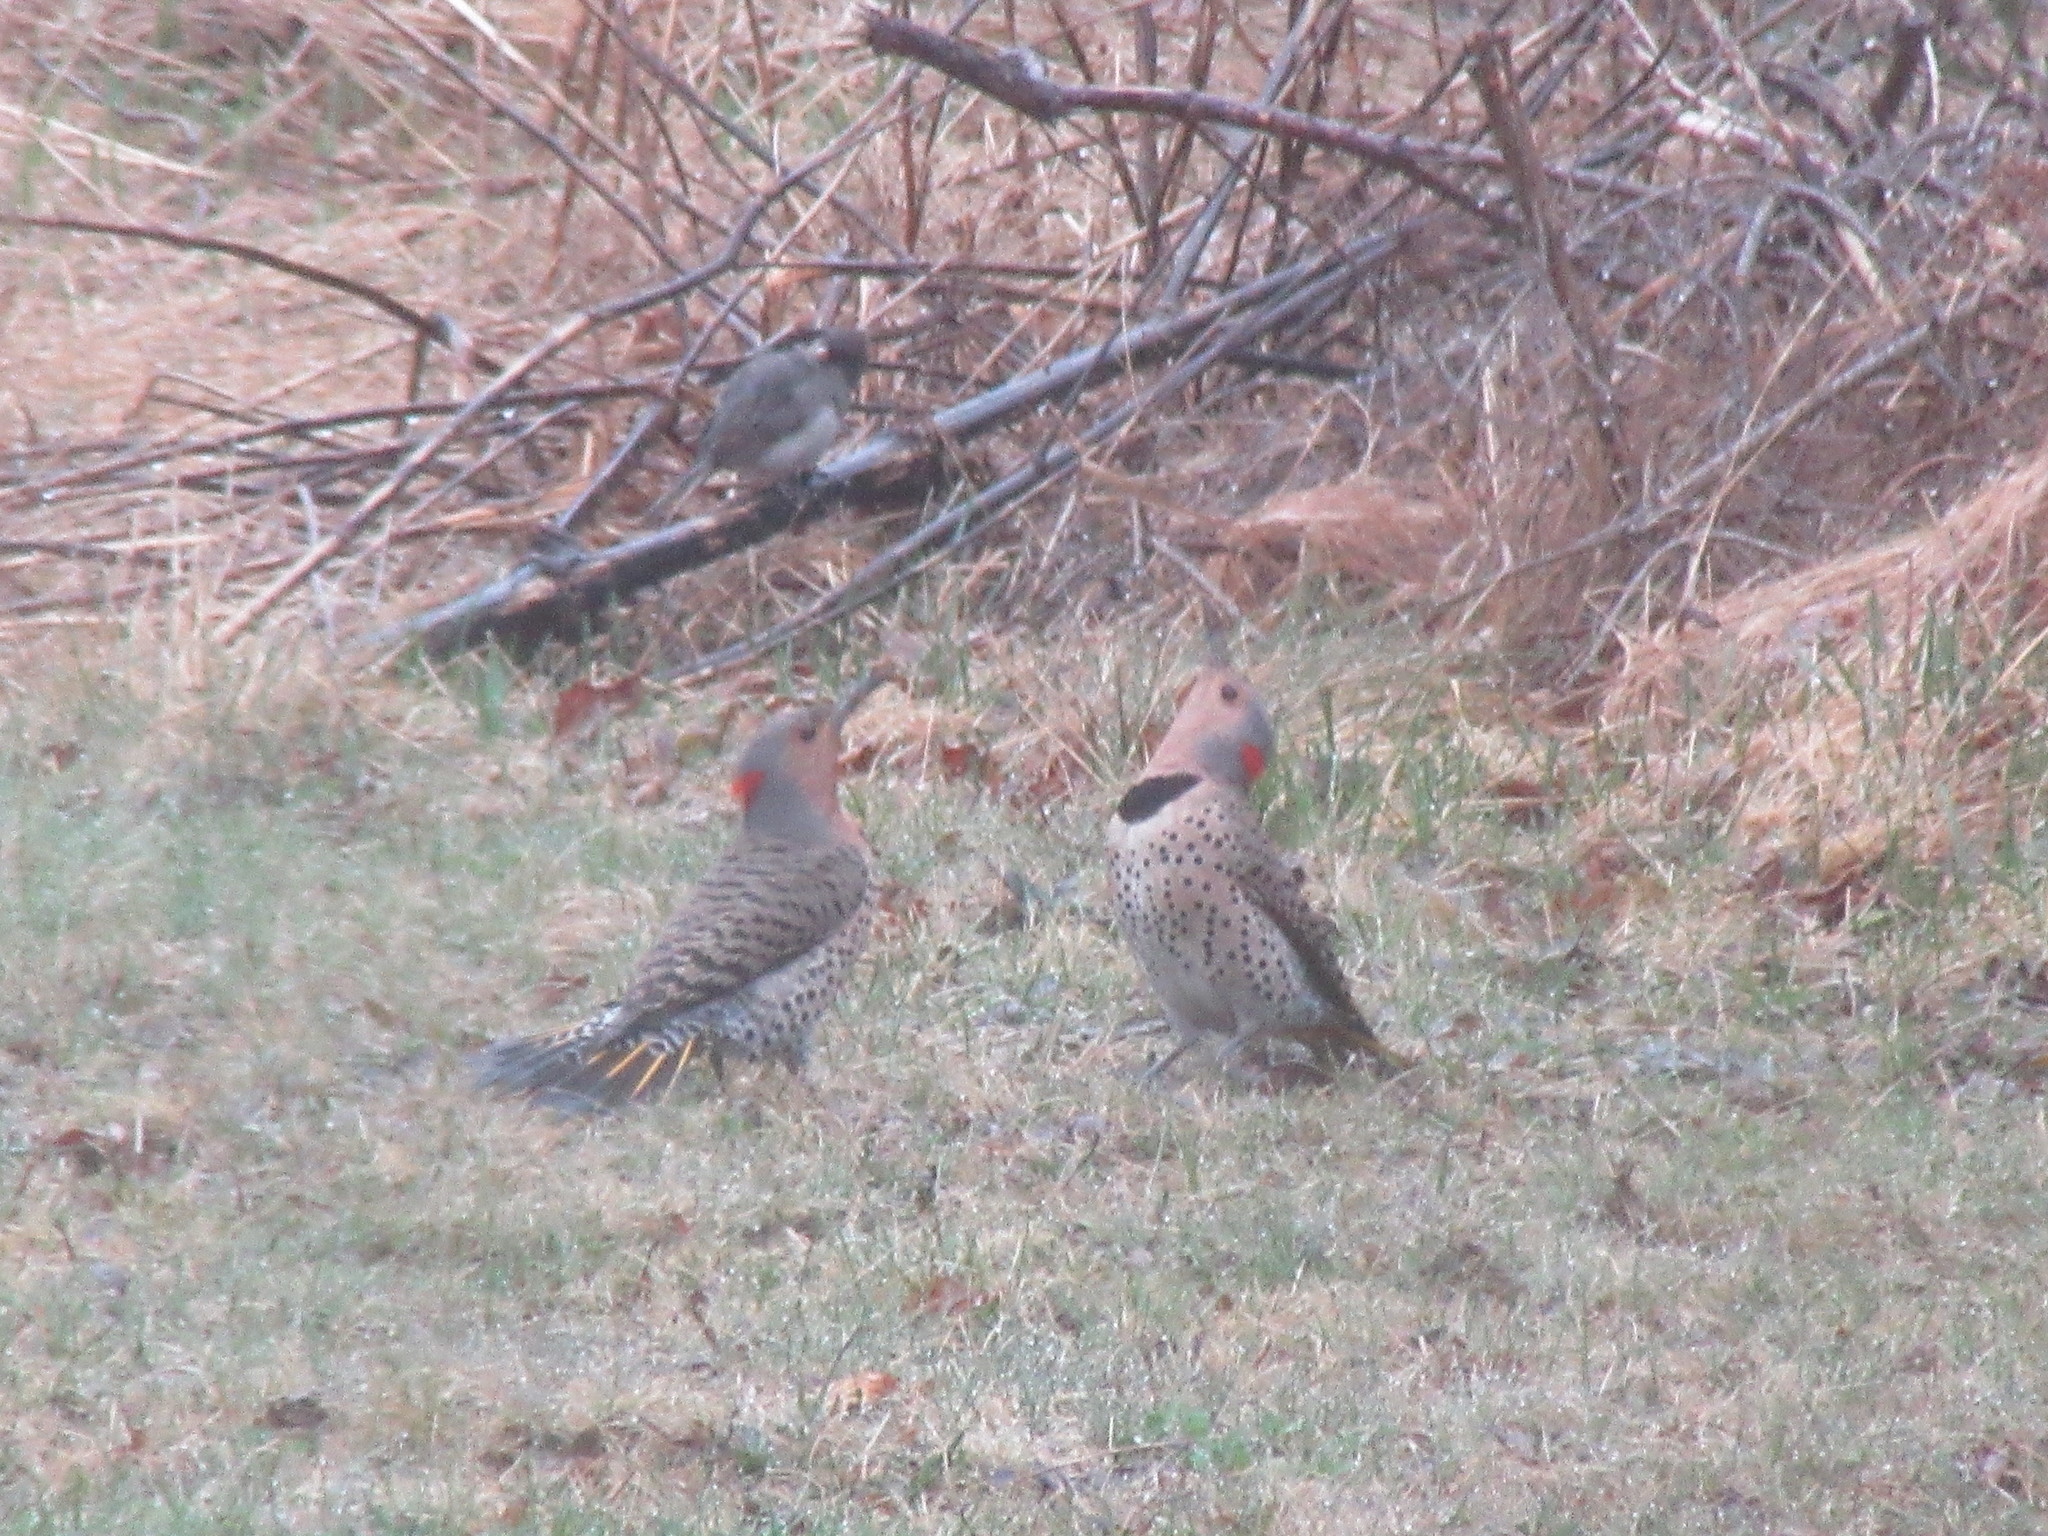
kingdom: Animalia
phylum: Chordata
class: Aves
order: Piciformes
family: Picidae
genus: Colaptes
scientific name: Colaptes auratus
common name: Northern flicker
